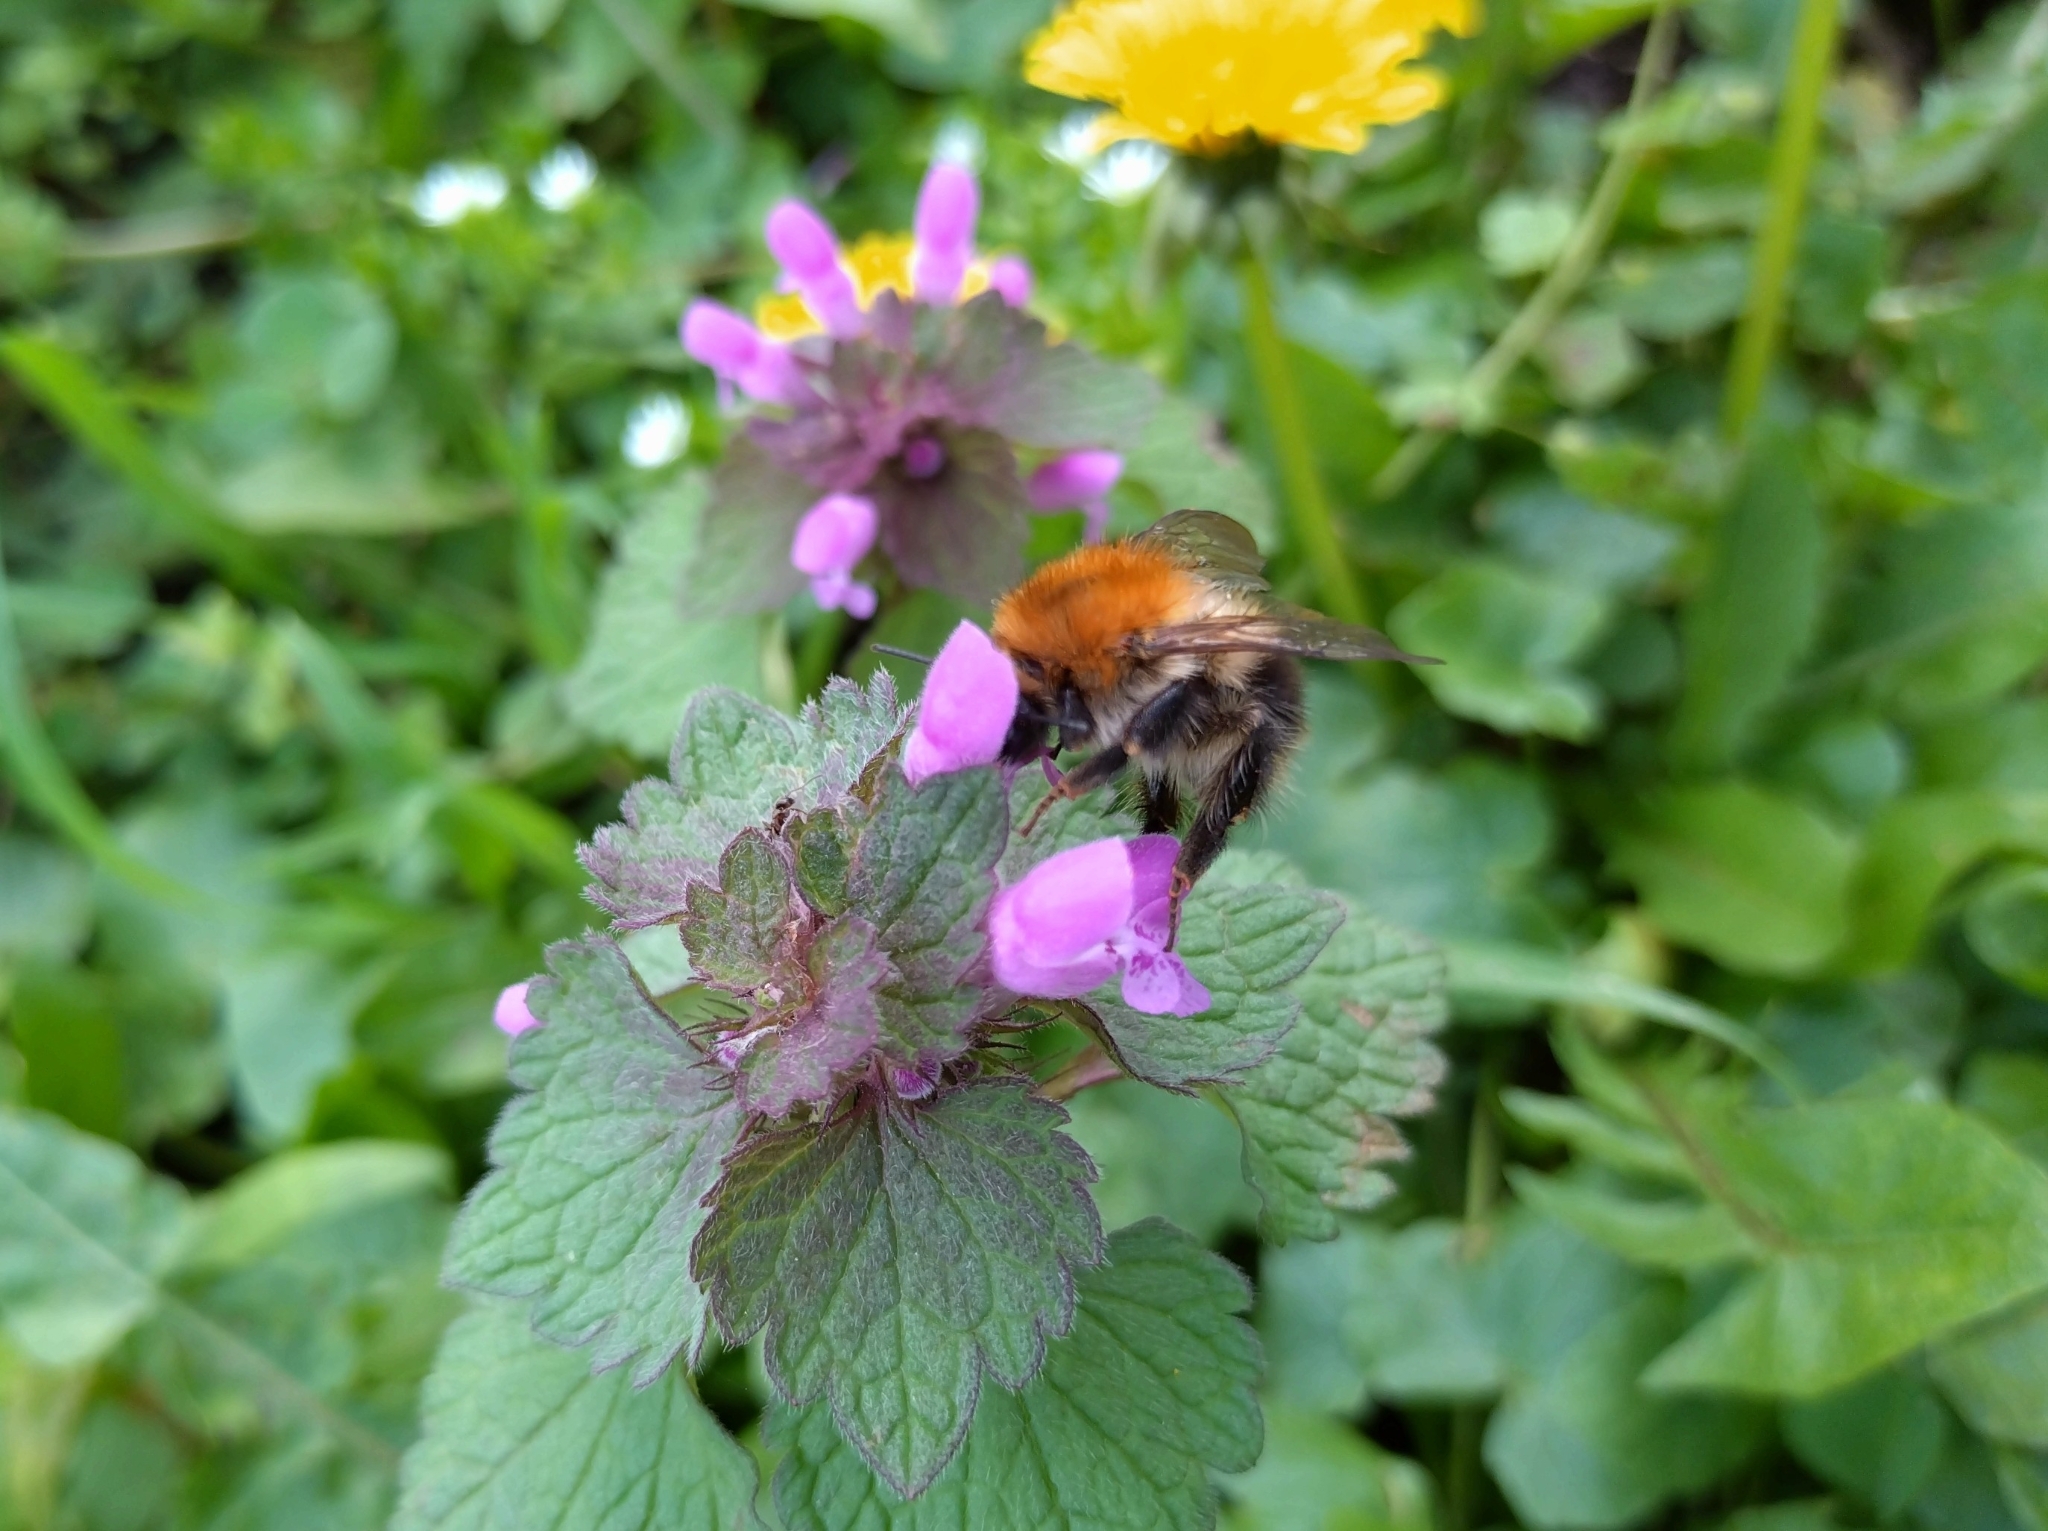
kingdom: Animalia
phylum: Arthropoda
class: Insecta
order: Hymenoptera
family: Apidae
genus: Bombus
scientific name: Bombus pascuorum
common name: Common carder bee
